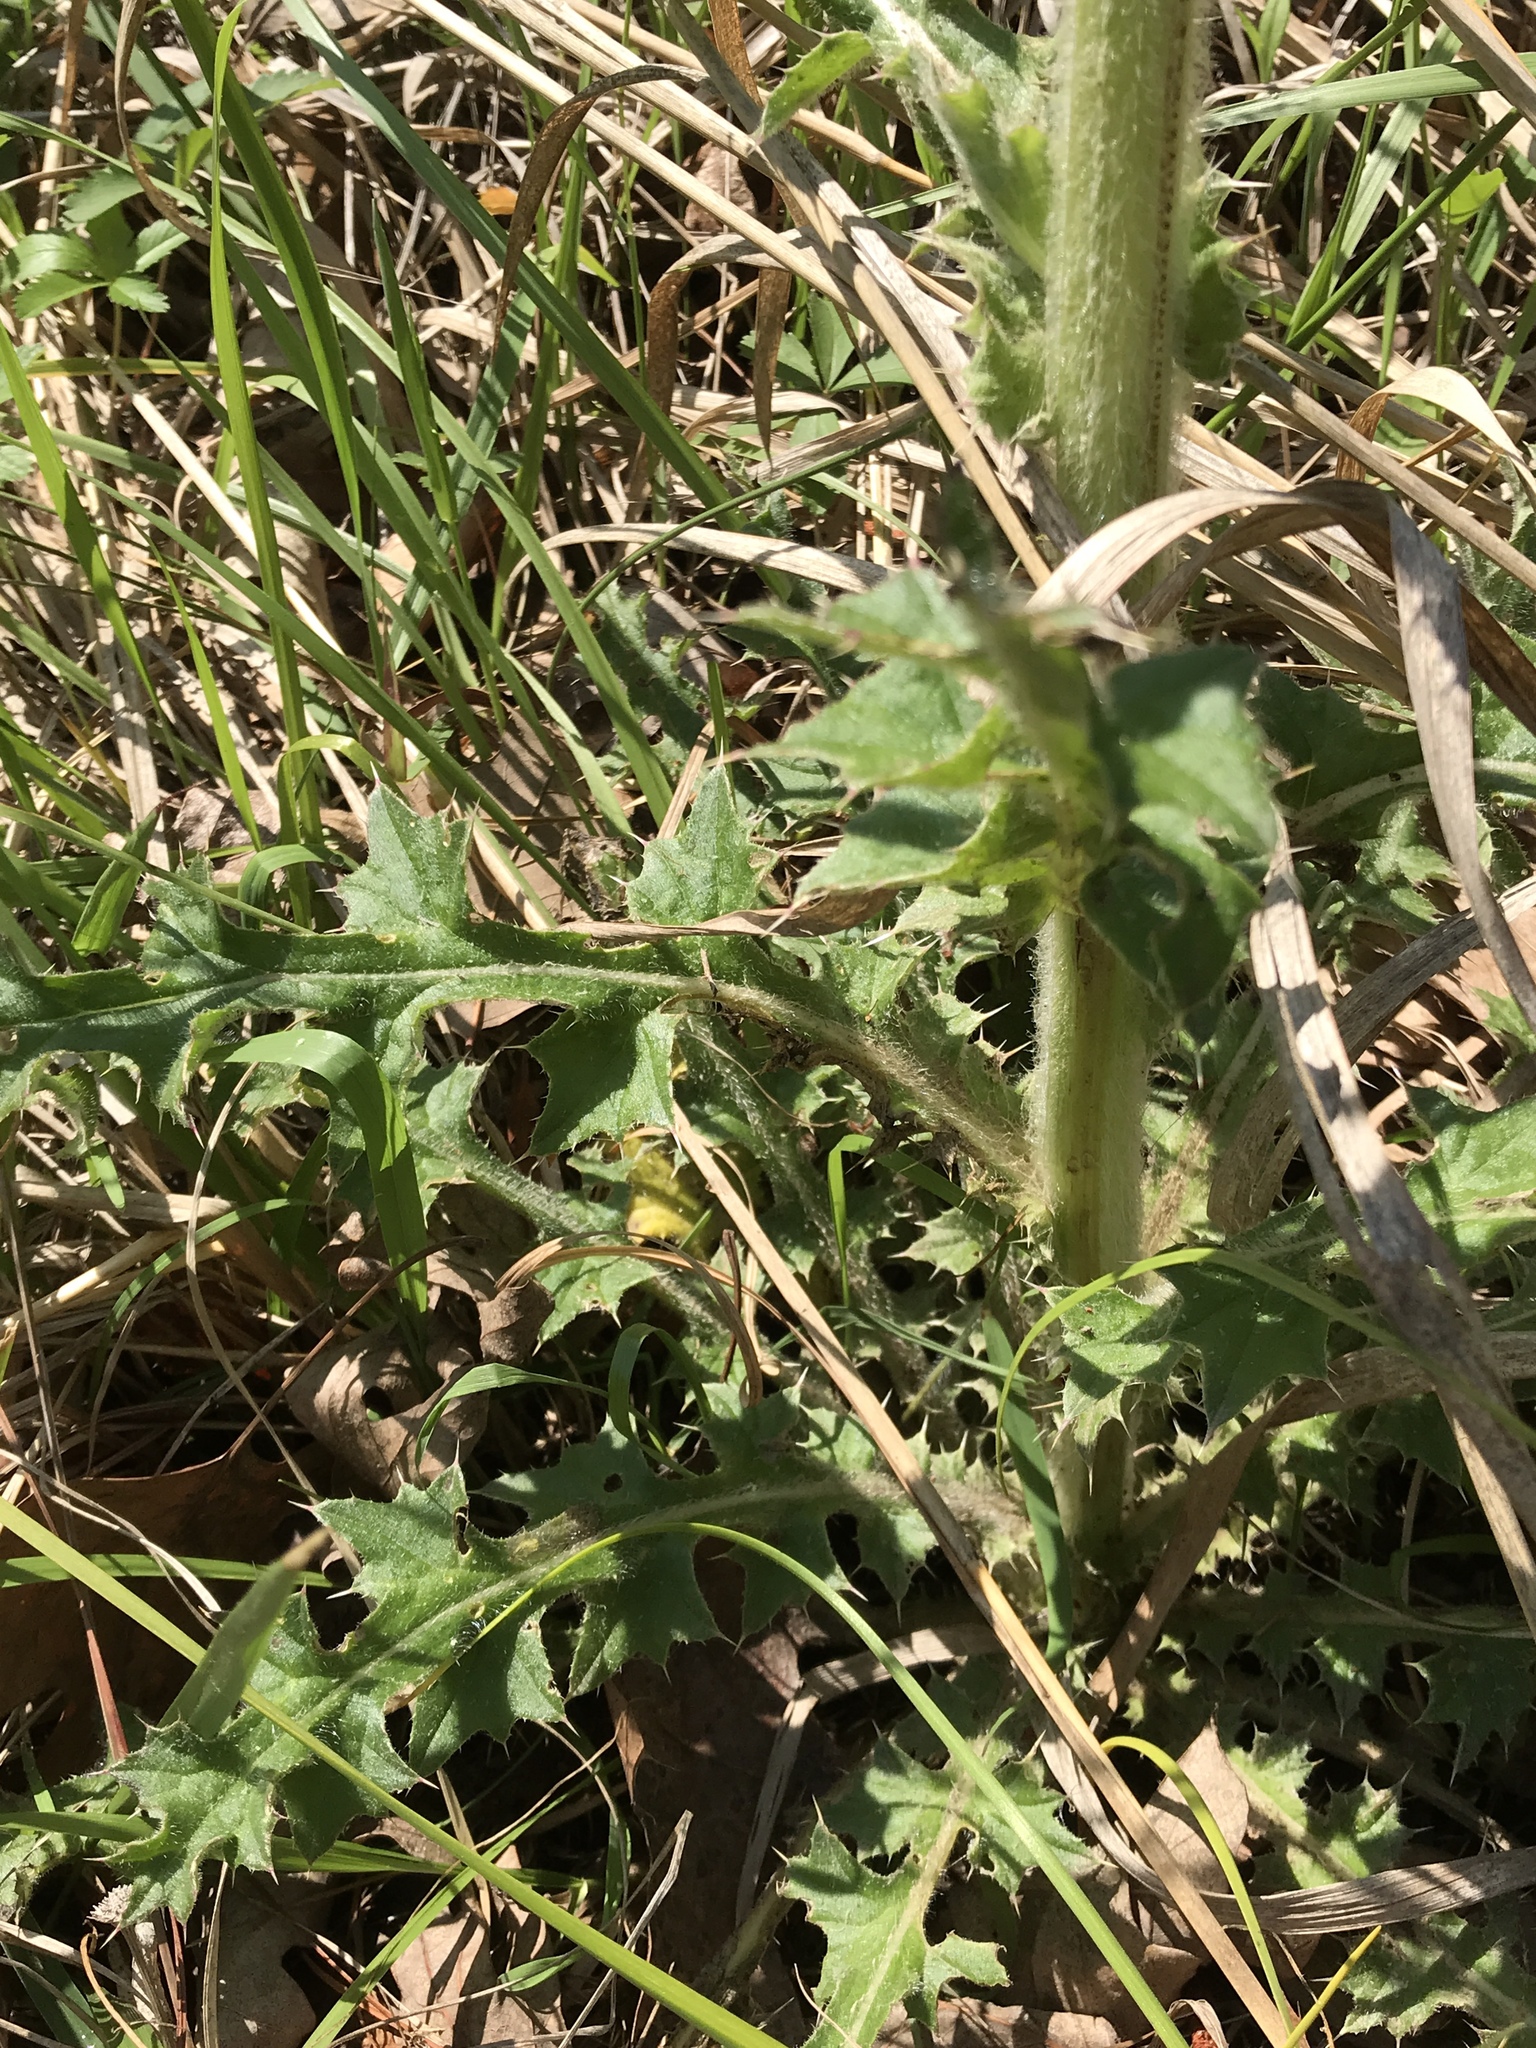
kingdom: Plantae
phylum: Tracheophyta
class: Magnoliopsida
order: Asterales
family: Asteraceae
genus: Cirsium
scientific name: Cirsium horridulum
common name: Bristly thistle
